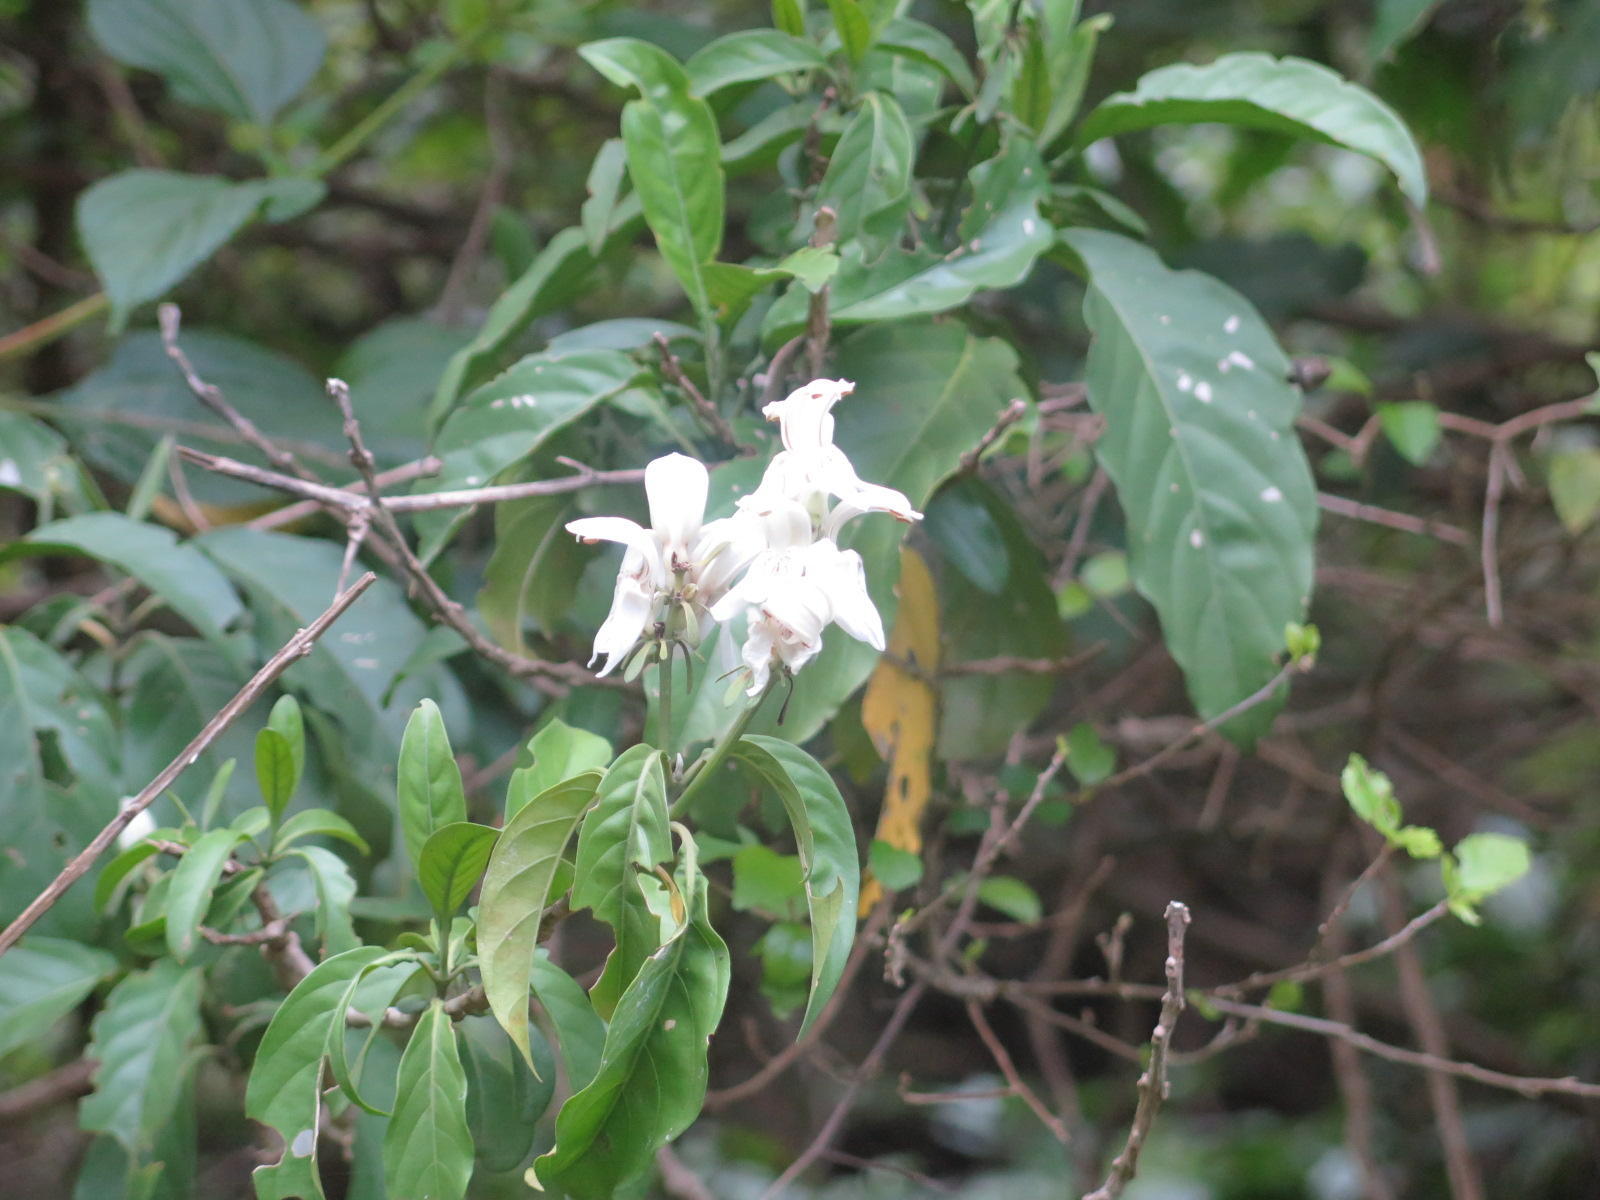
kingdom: Plantae
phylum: Tracheophyta
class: Magnoliopsida
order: Lamiales
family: Acanthaceae
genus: Justicia
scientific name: Justicia adhatodoides
